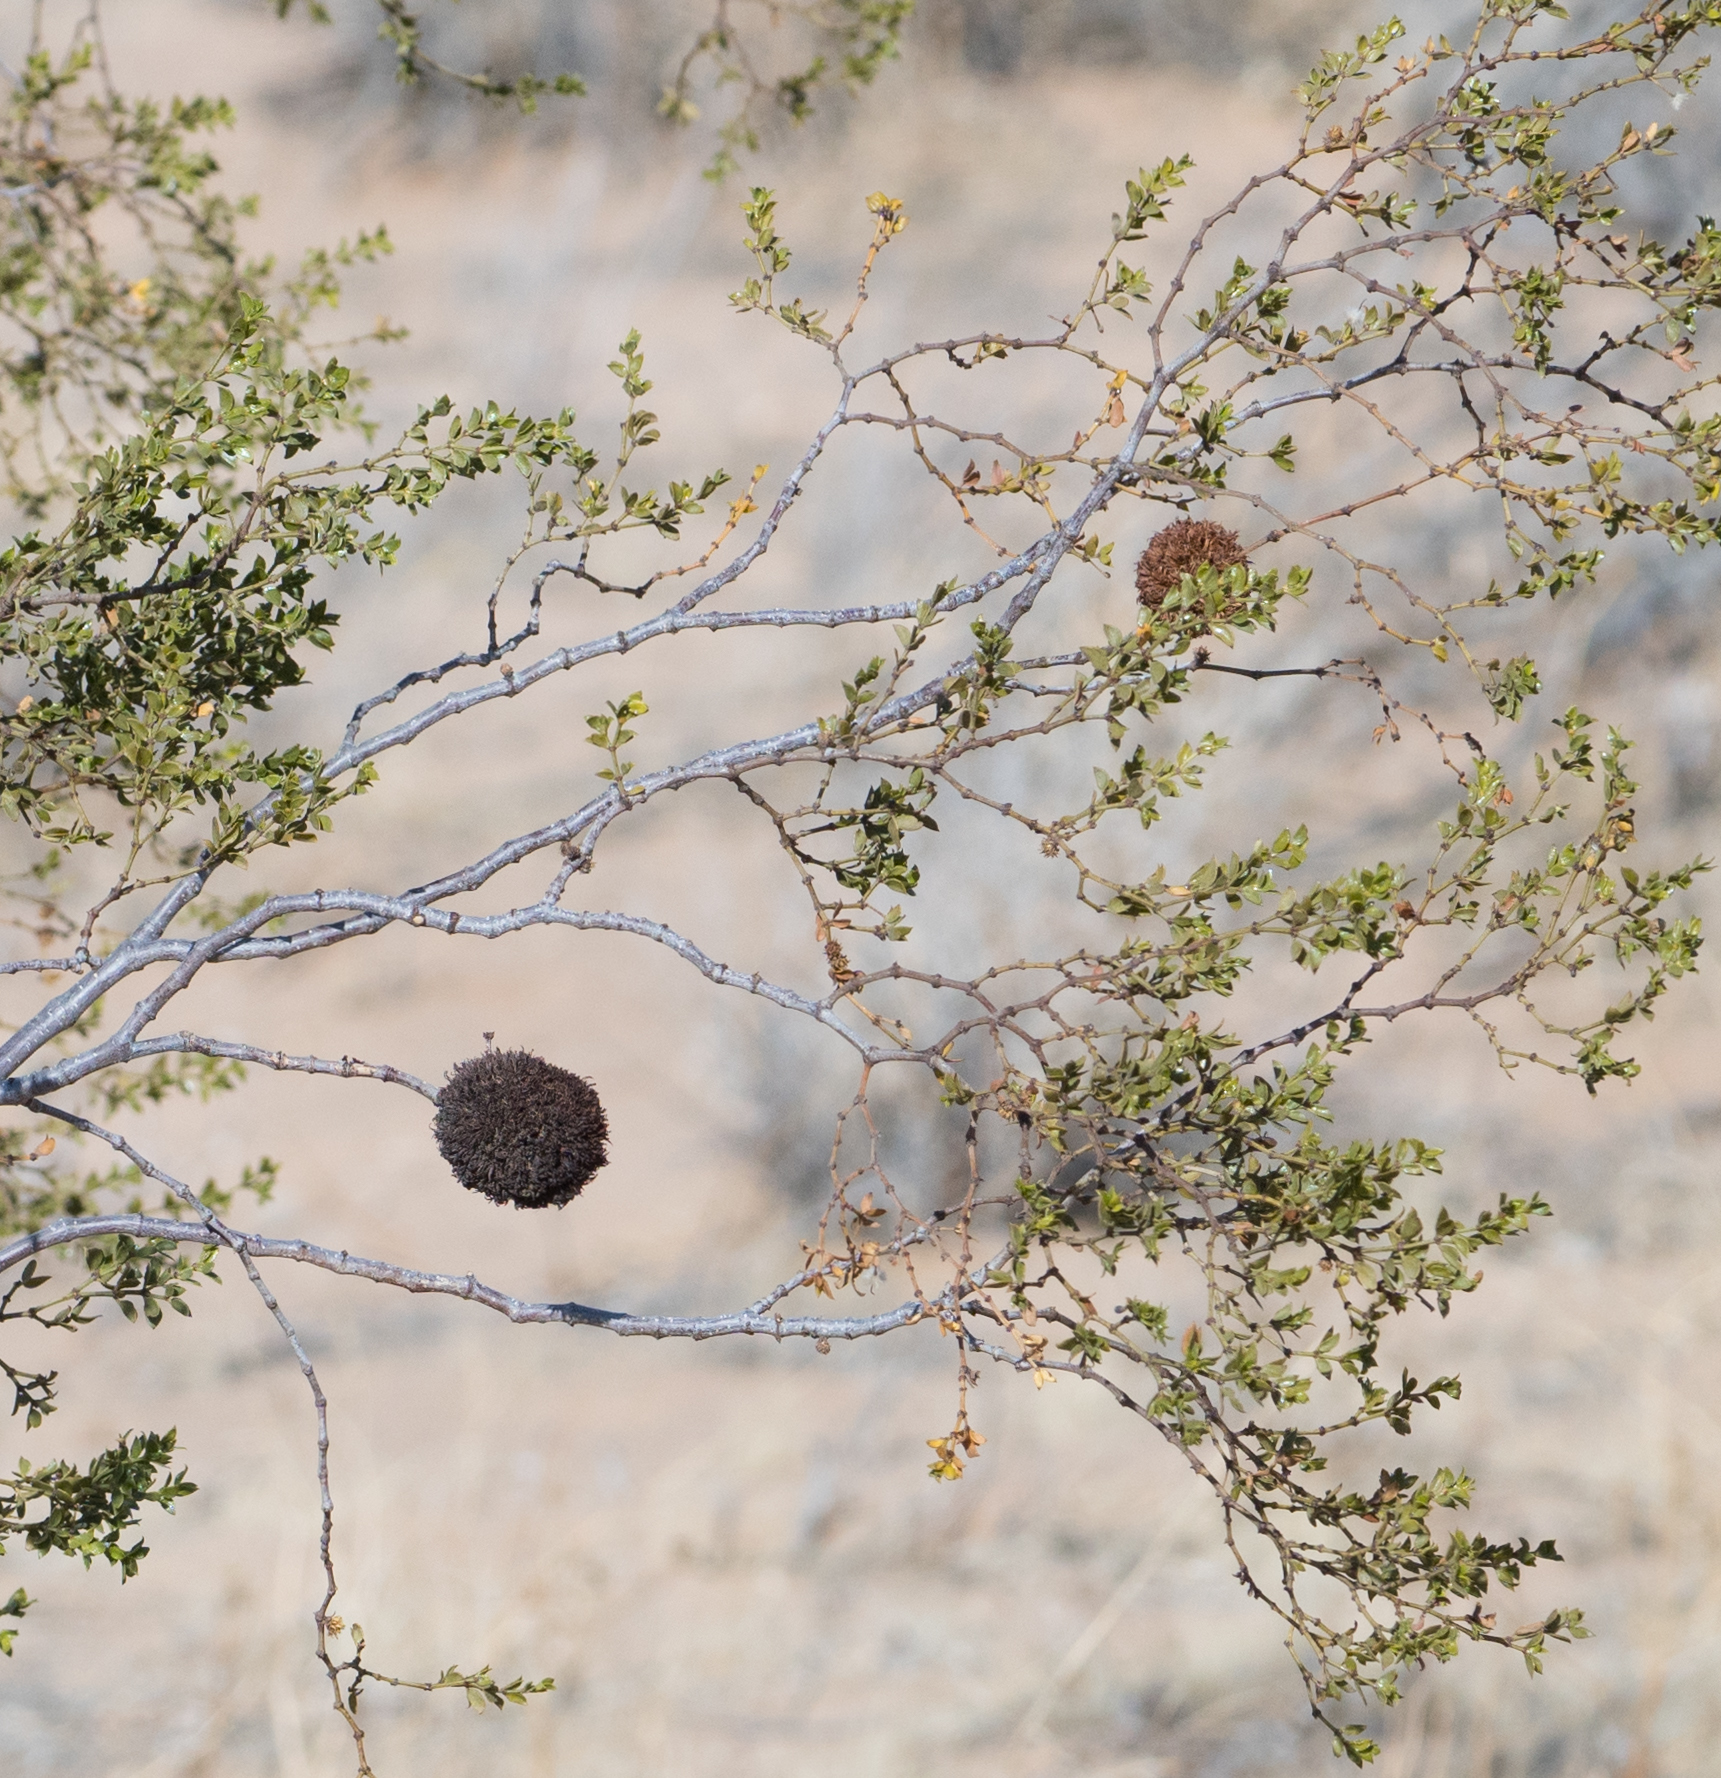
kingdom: Animalia
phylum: Arthropoda
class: Insecta
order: Diptera
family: Cecidomyiidae
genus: Asphondylia
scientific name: Asphondylia auripila
